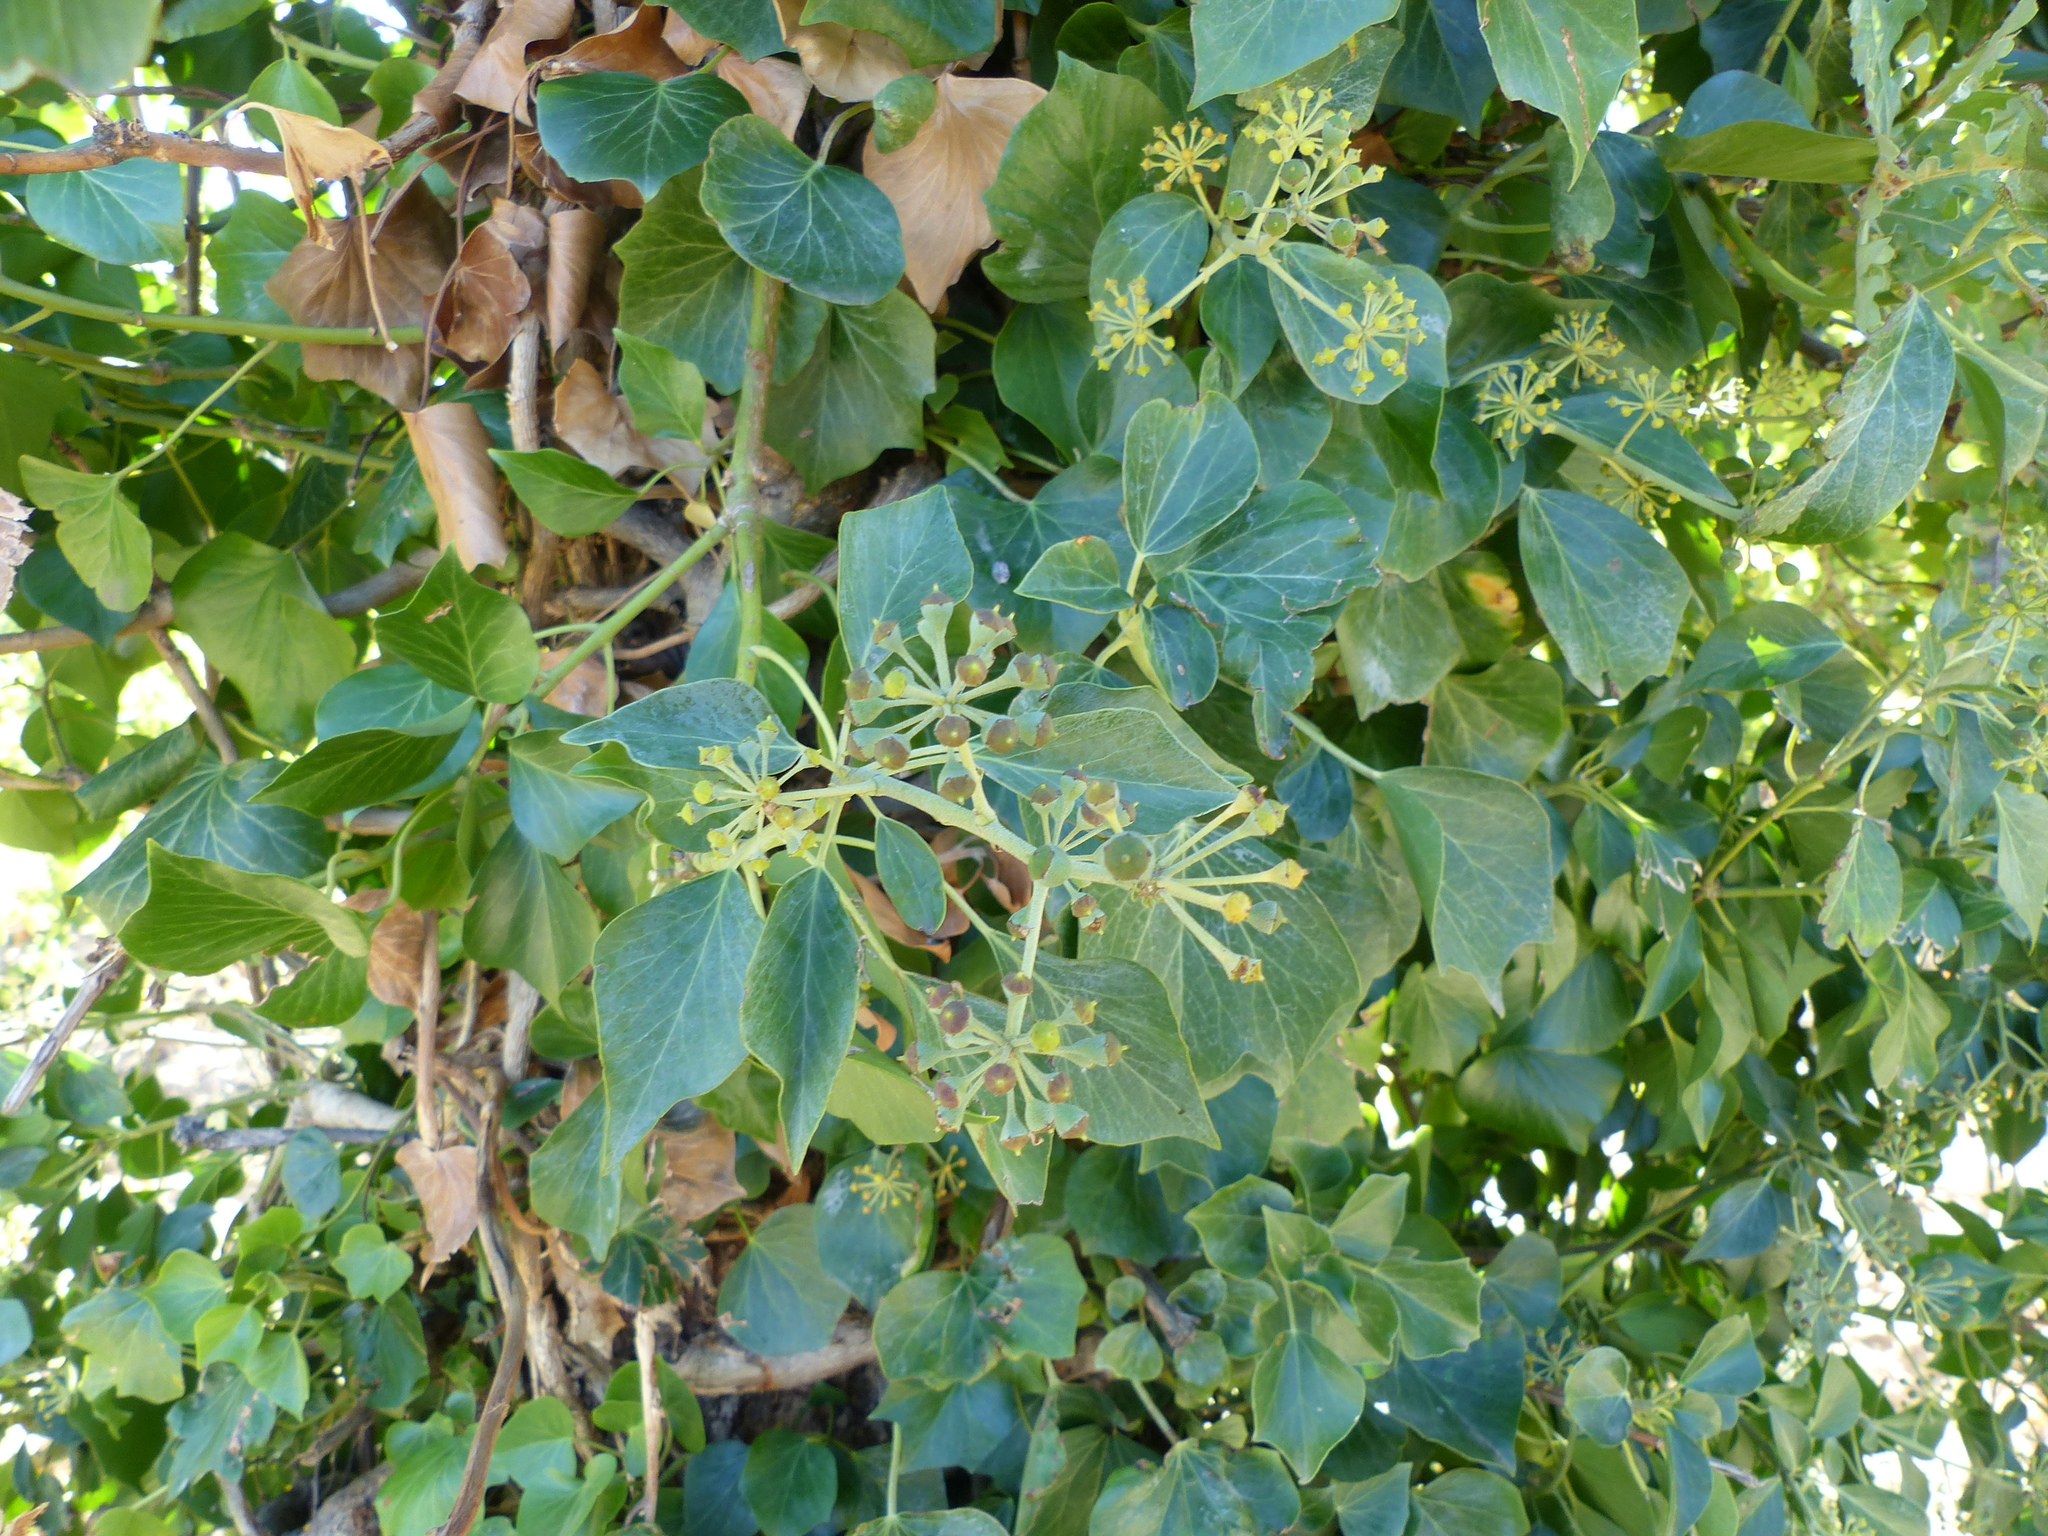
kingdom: Plantae
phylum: Tracheophyta
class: Magnoliopsida
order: Apiales
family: Araliaceae
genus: Hedera
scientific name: Hedera helix
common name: Ivy
